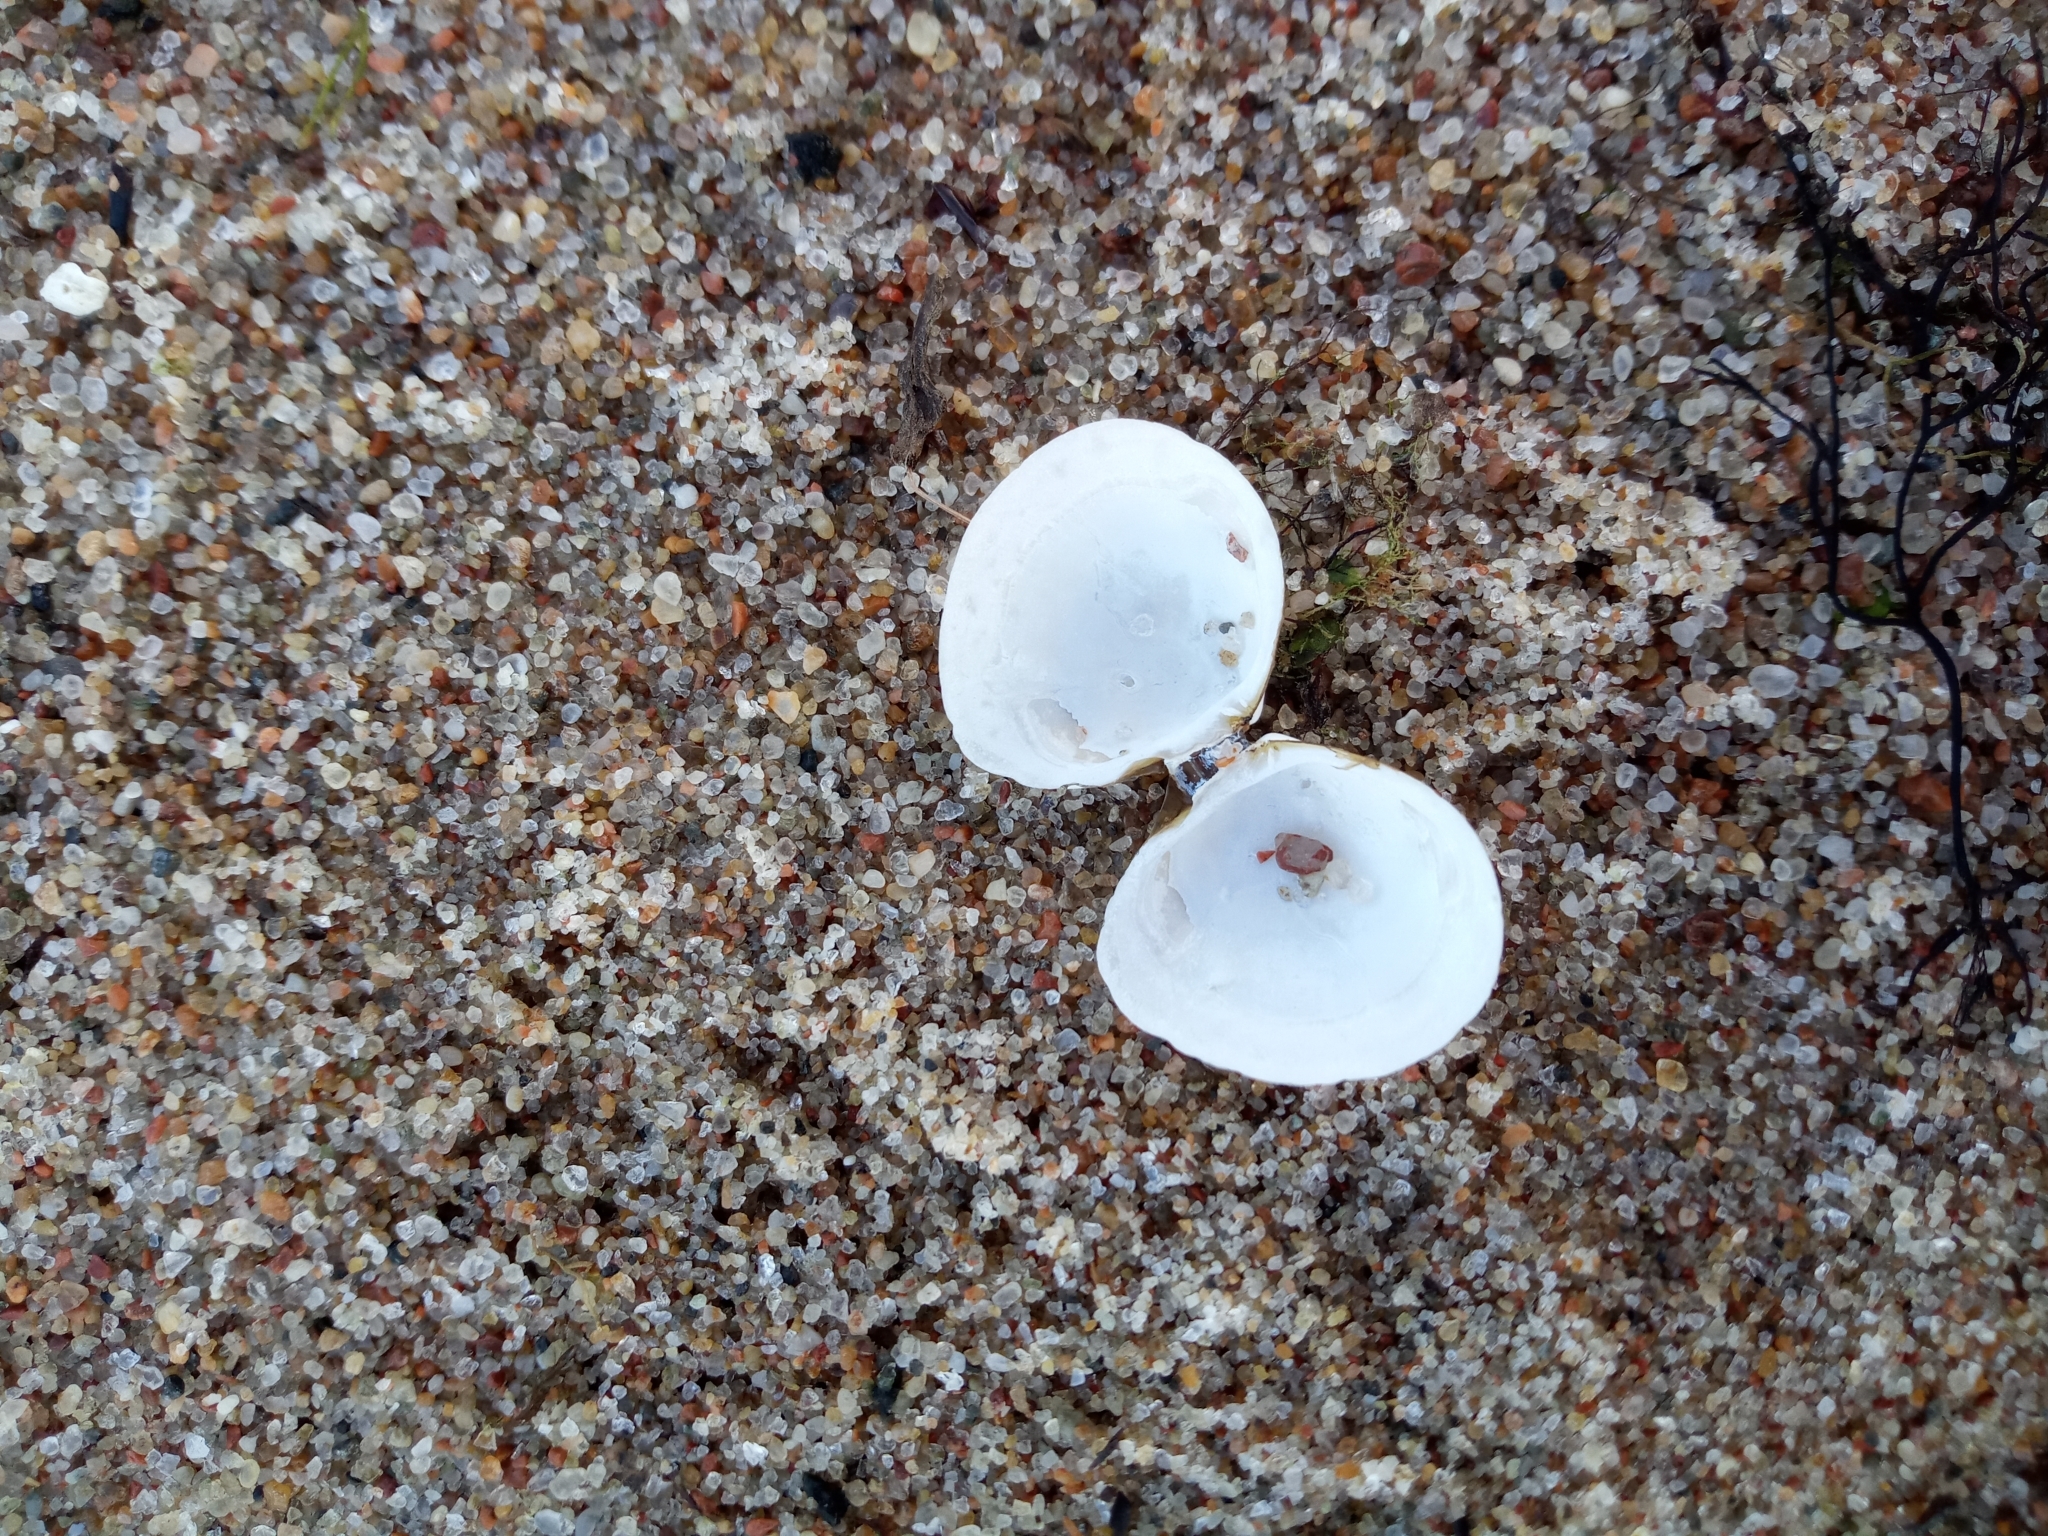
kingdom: Animalia
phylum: Mollusca
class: Bivalvia
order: Cardiida
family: Tellinidae
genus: Macoma
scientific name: Macoma balthica
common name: Baltic tellin
